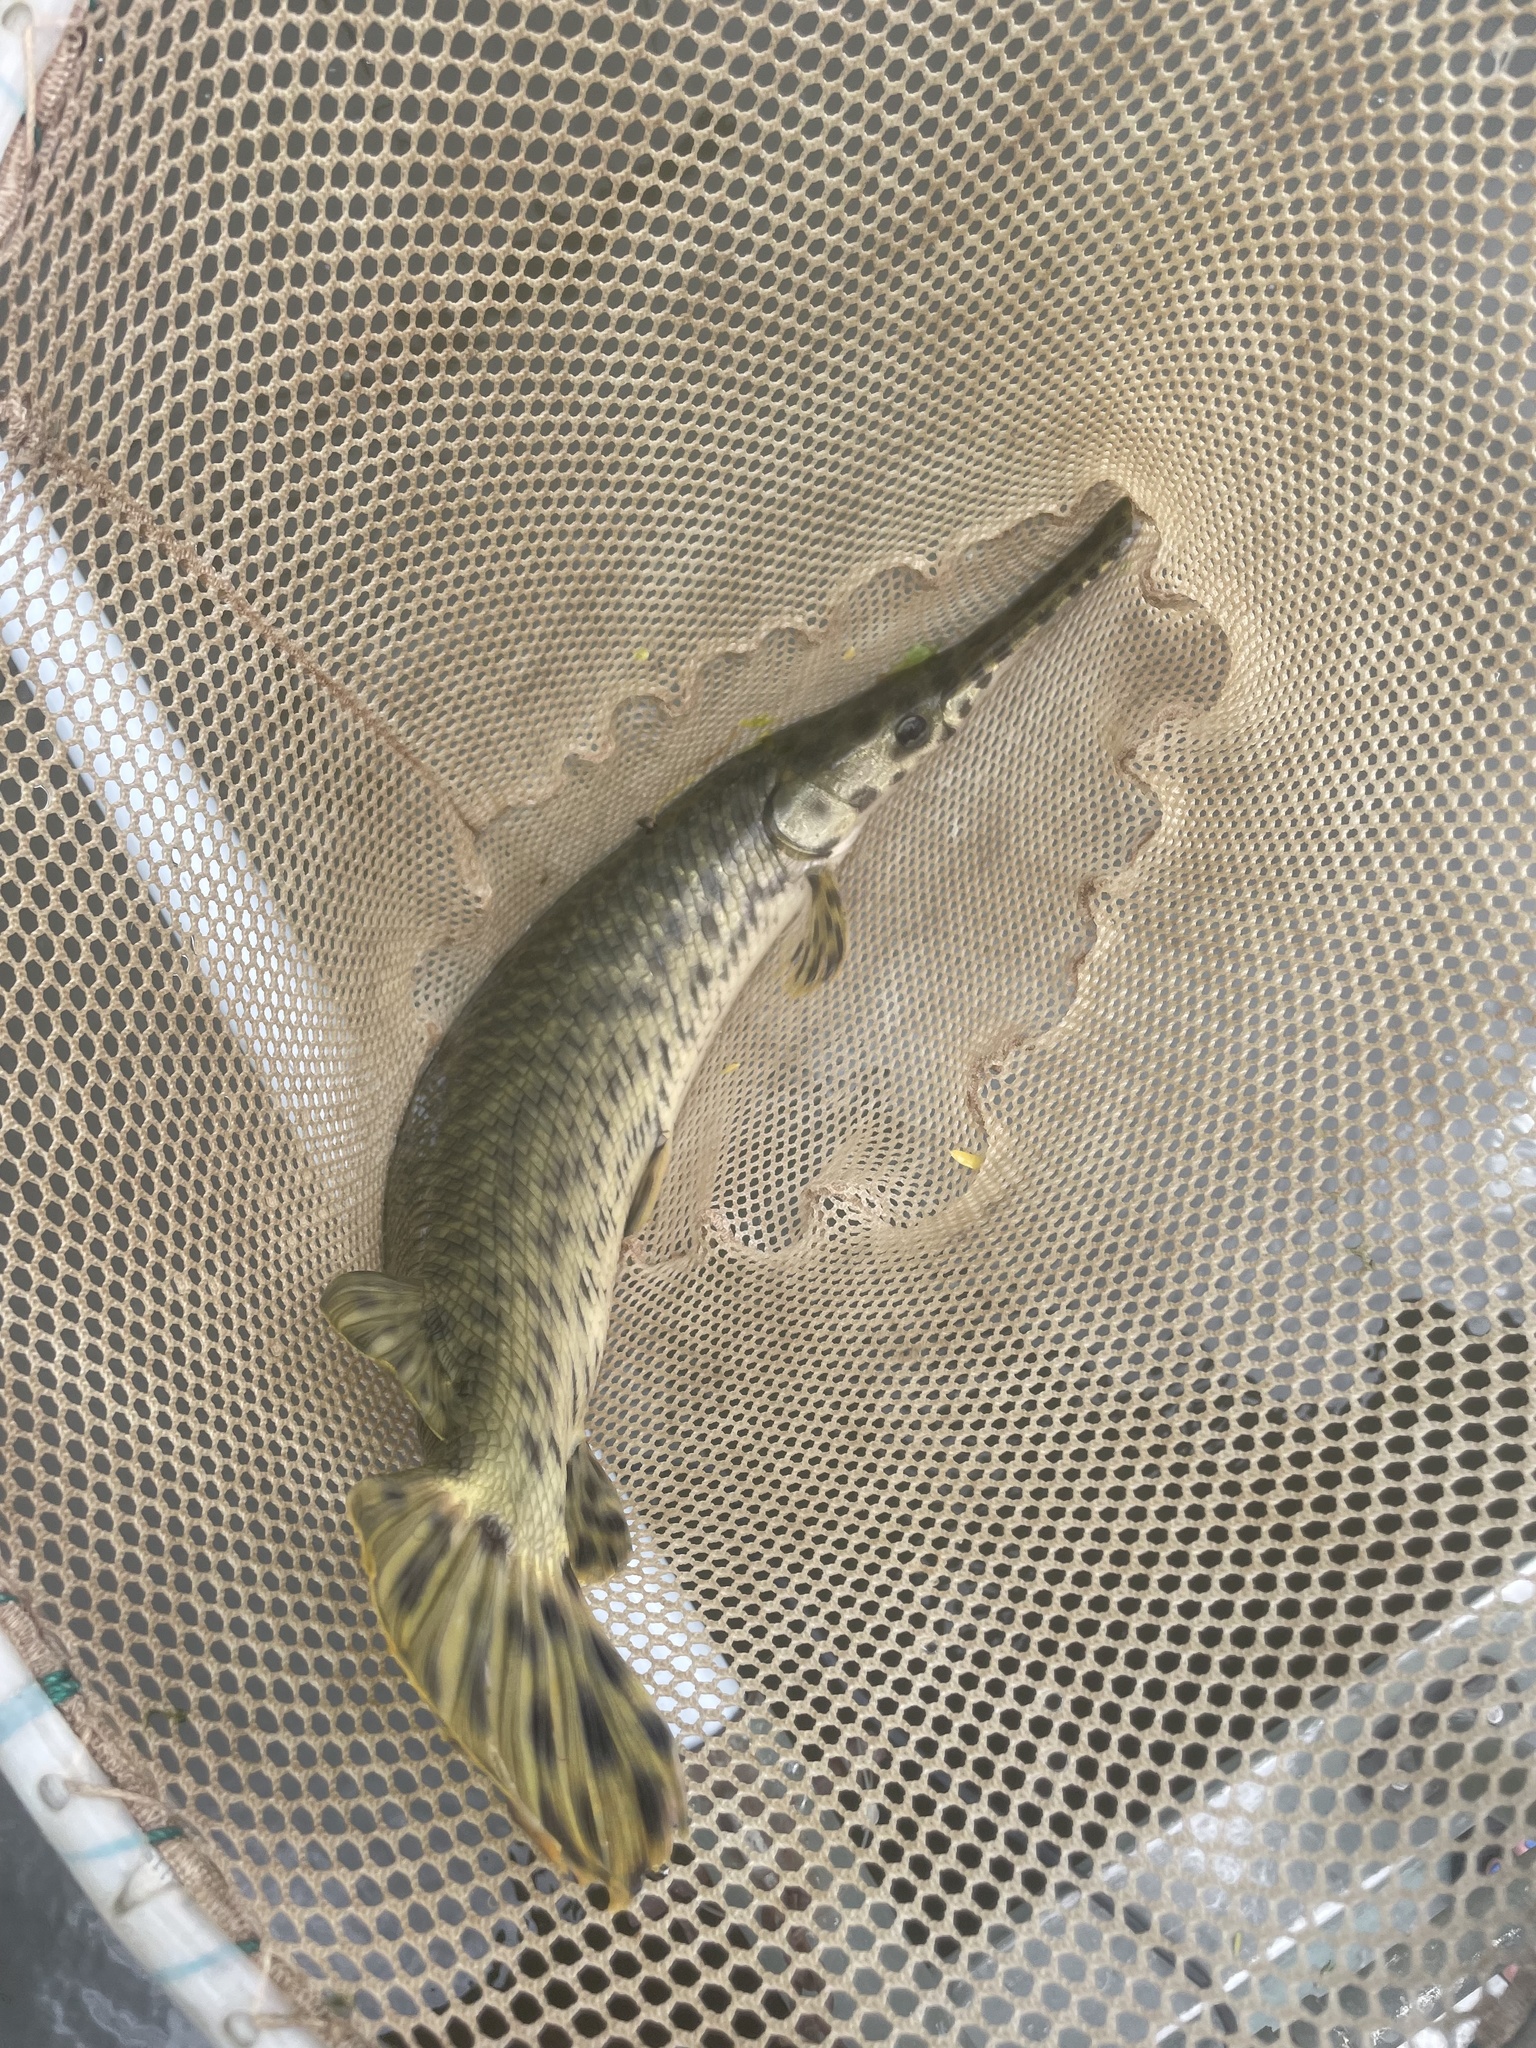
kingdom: Animalia
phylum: Chordata
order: Lepisosteiformes
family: Lepisosteidae
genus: Lepisosteus
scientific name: Lepisosteus oculatus
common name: Spotted gar
